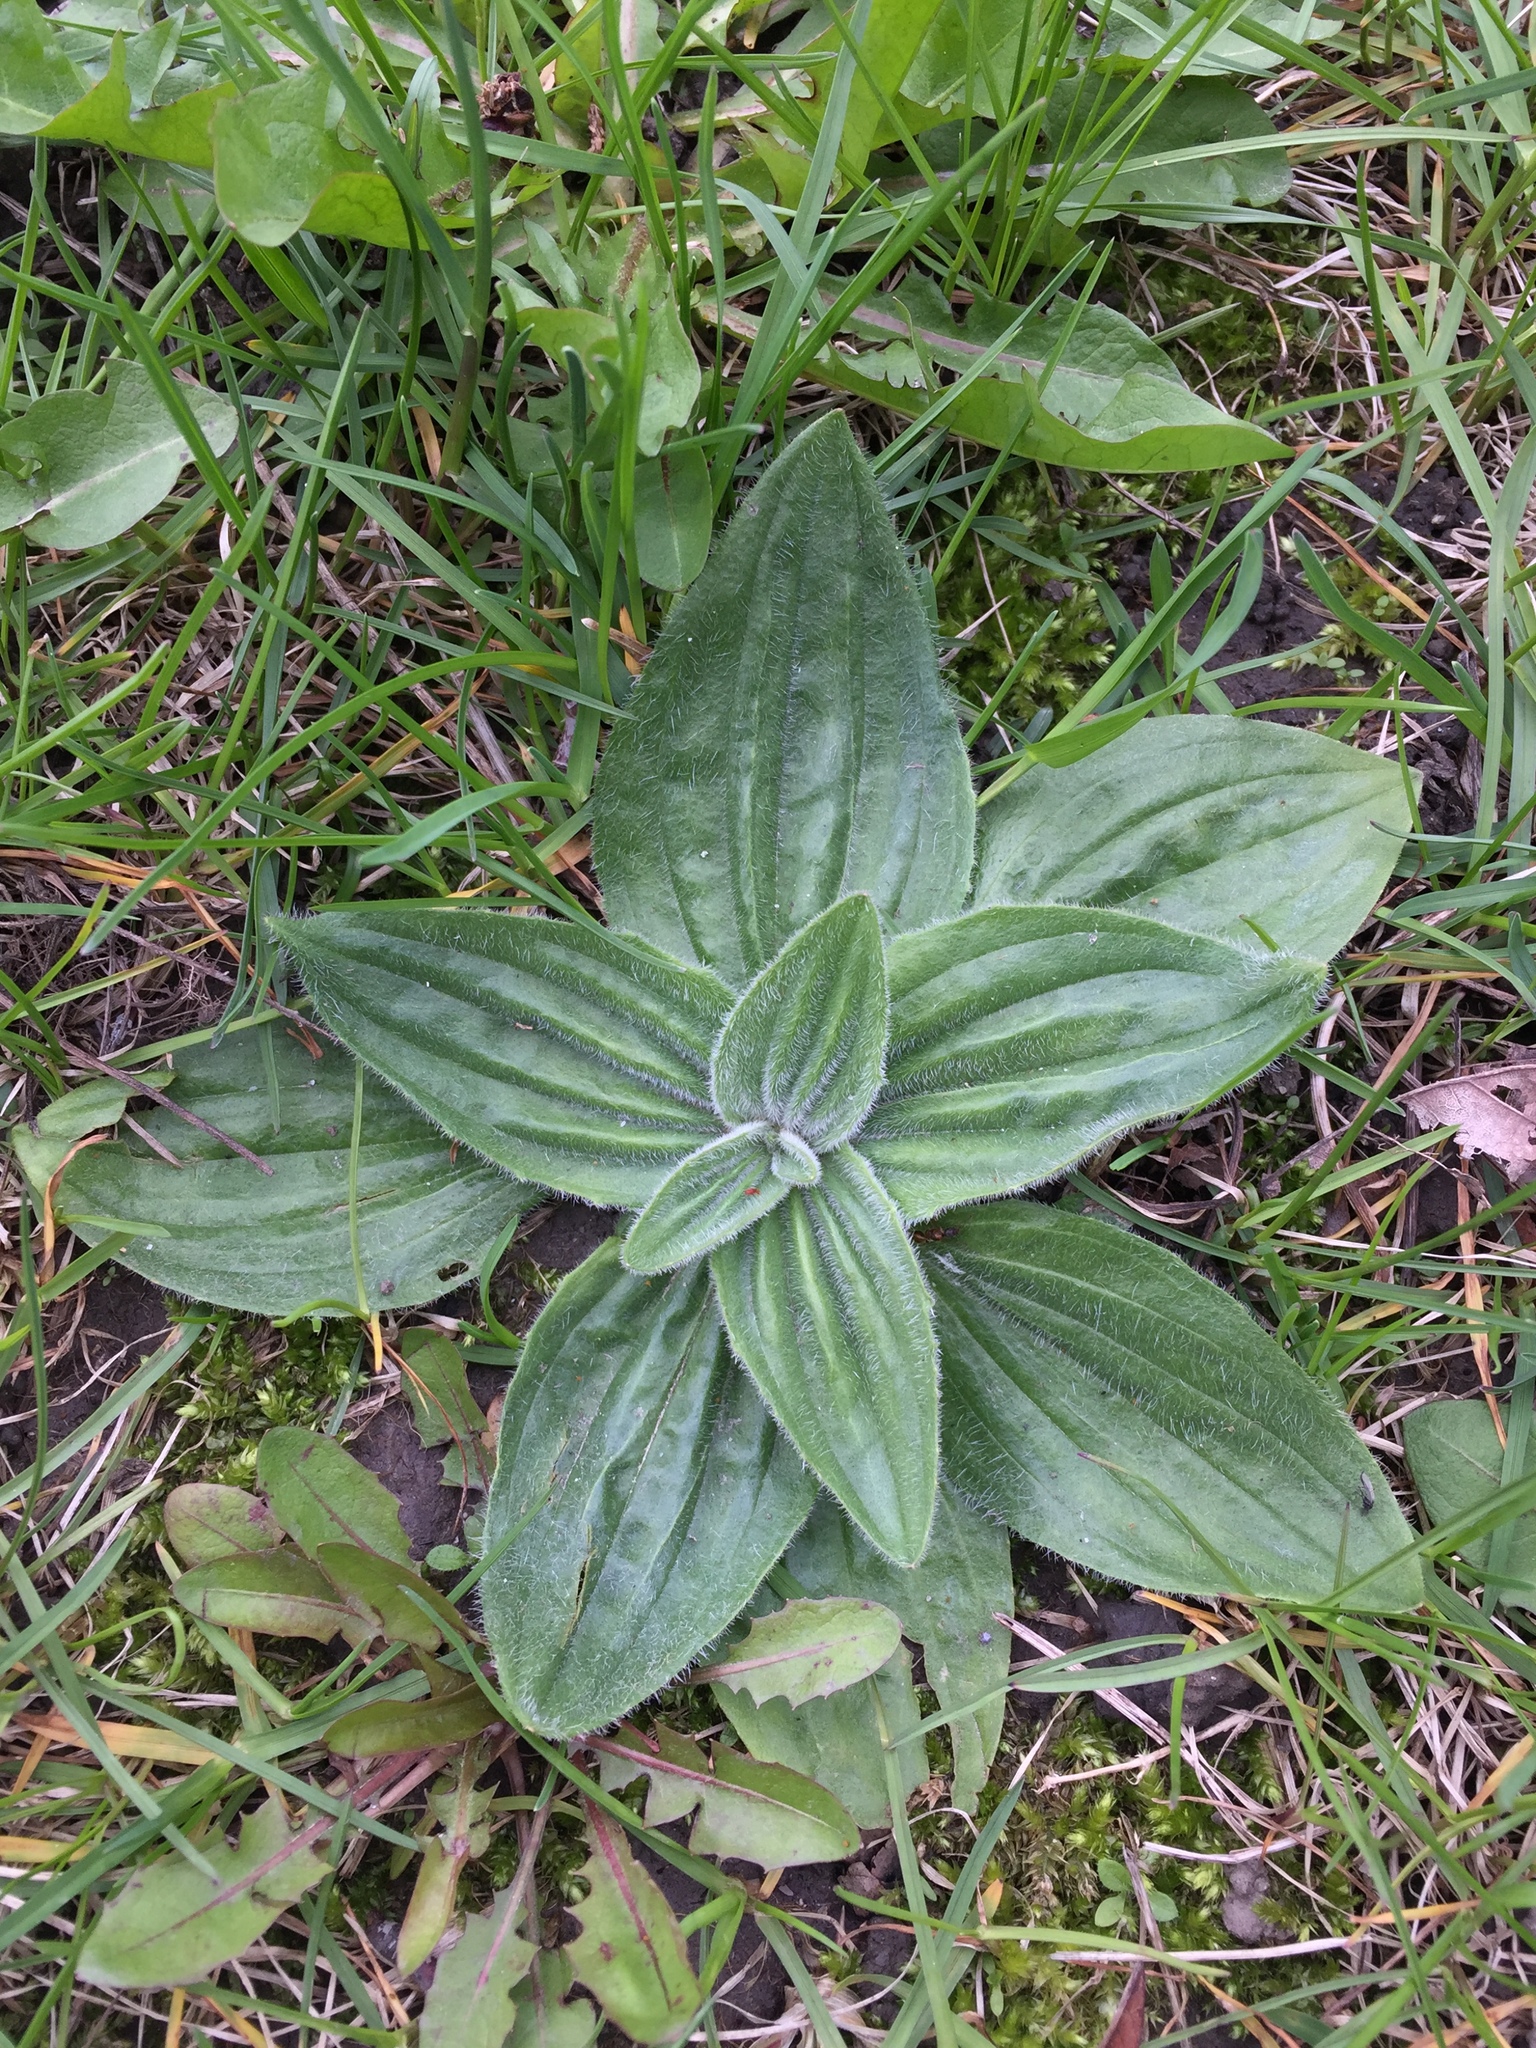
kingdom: Plantae
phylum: Tracheophyta
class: Magnoliopsida
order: Lamiales
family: Plantaginaceae
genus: Plantago
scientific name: Plantago media
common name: Hoary plantain
